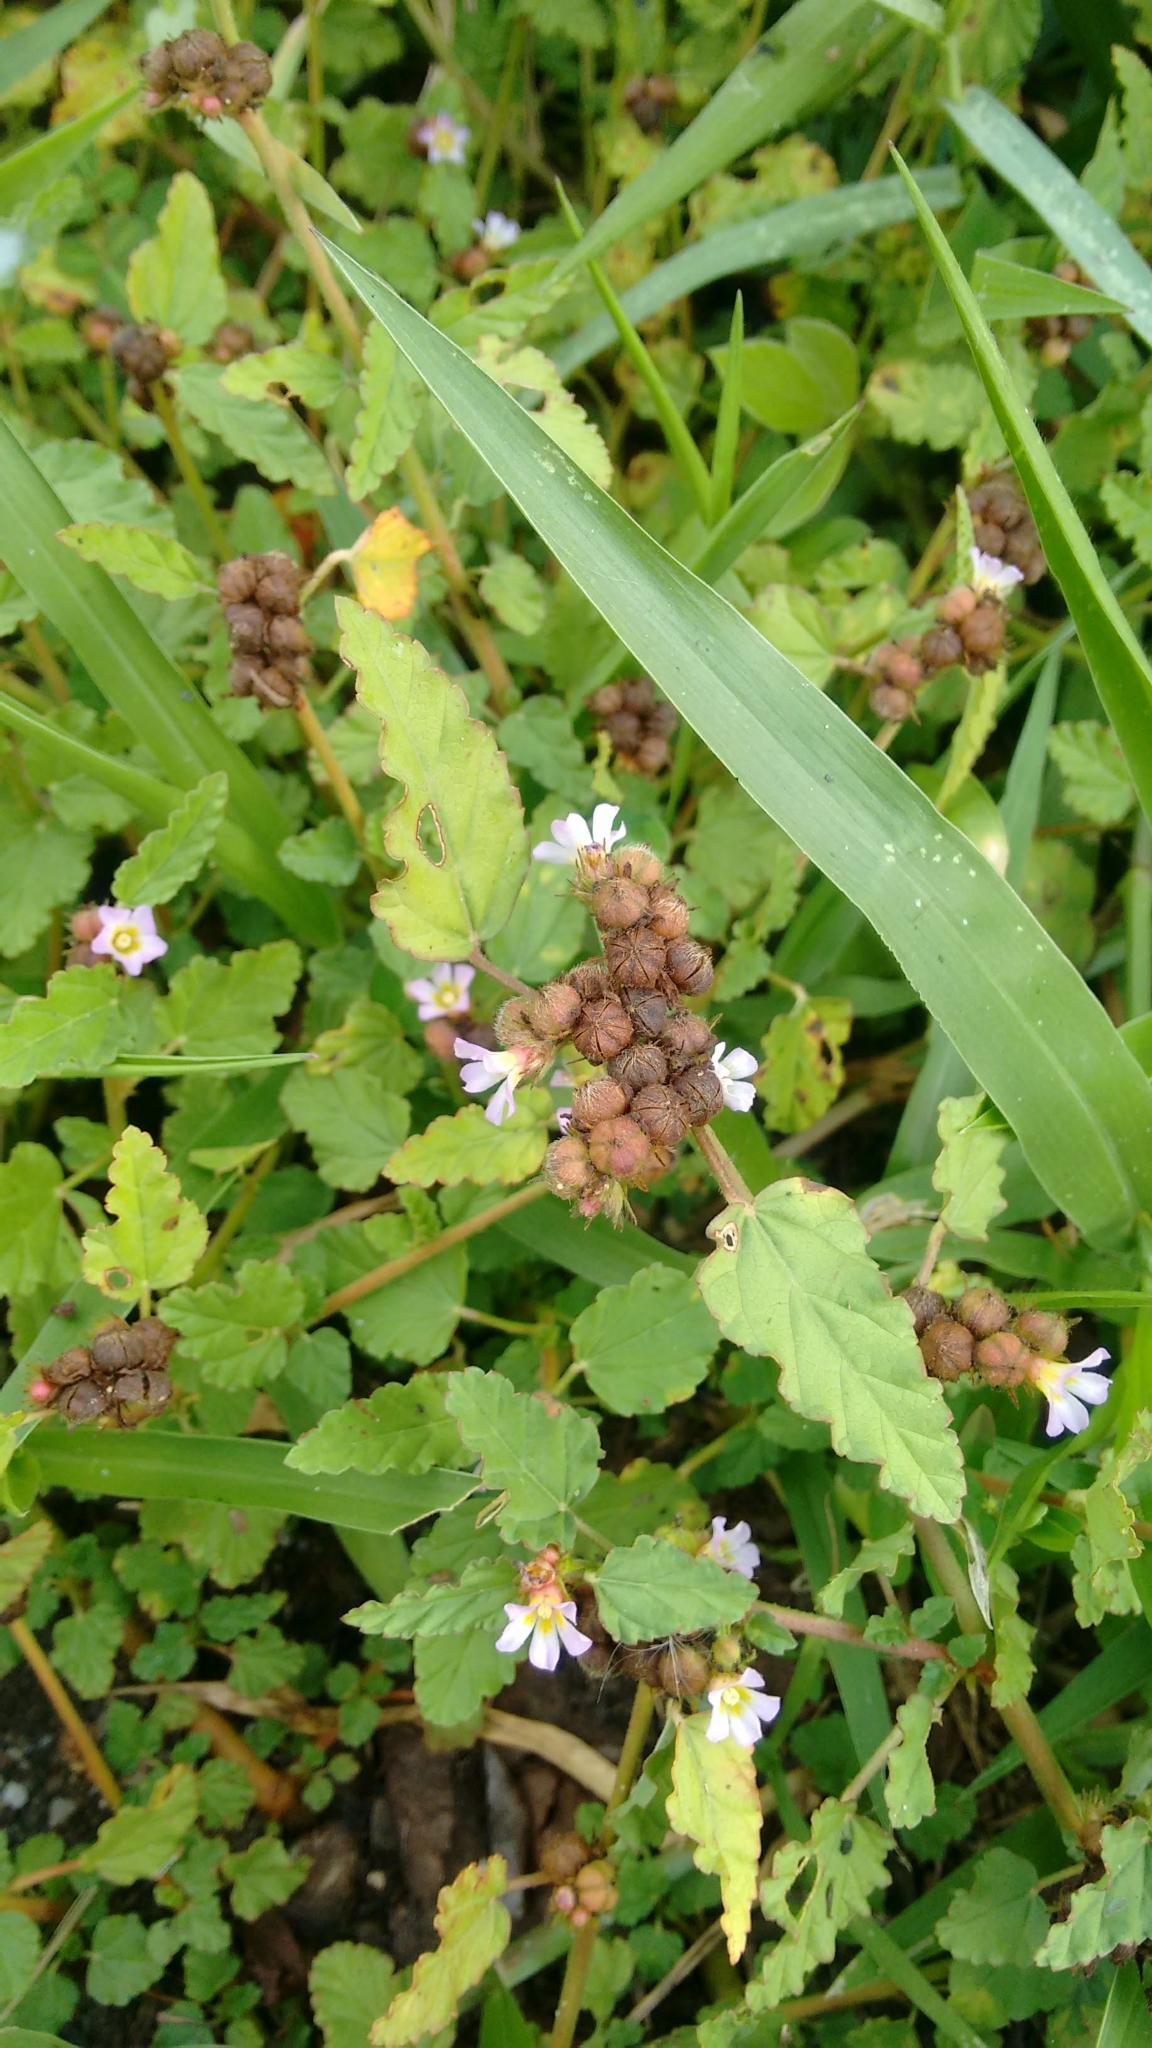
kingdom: Plantae
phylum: Tracheophyta
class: Magnoliopsida
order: Malvales
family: Malvaceae
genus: Melochia
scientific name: Melochia corchorifolia
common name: Chocolateweed
